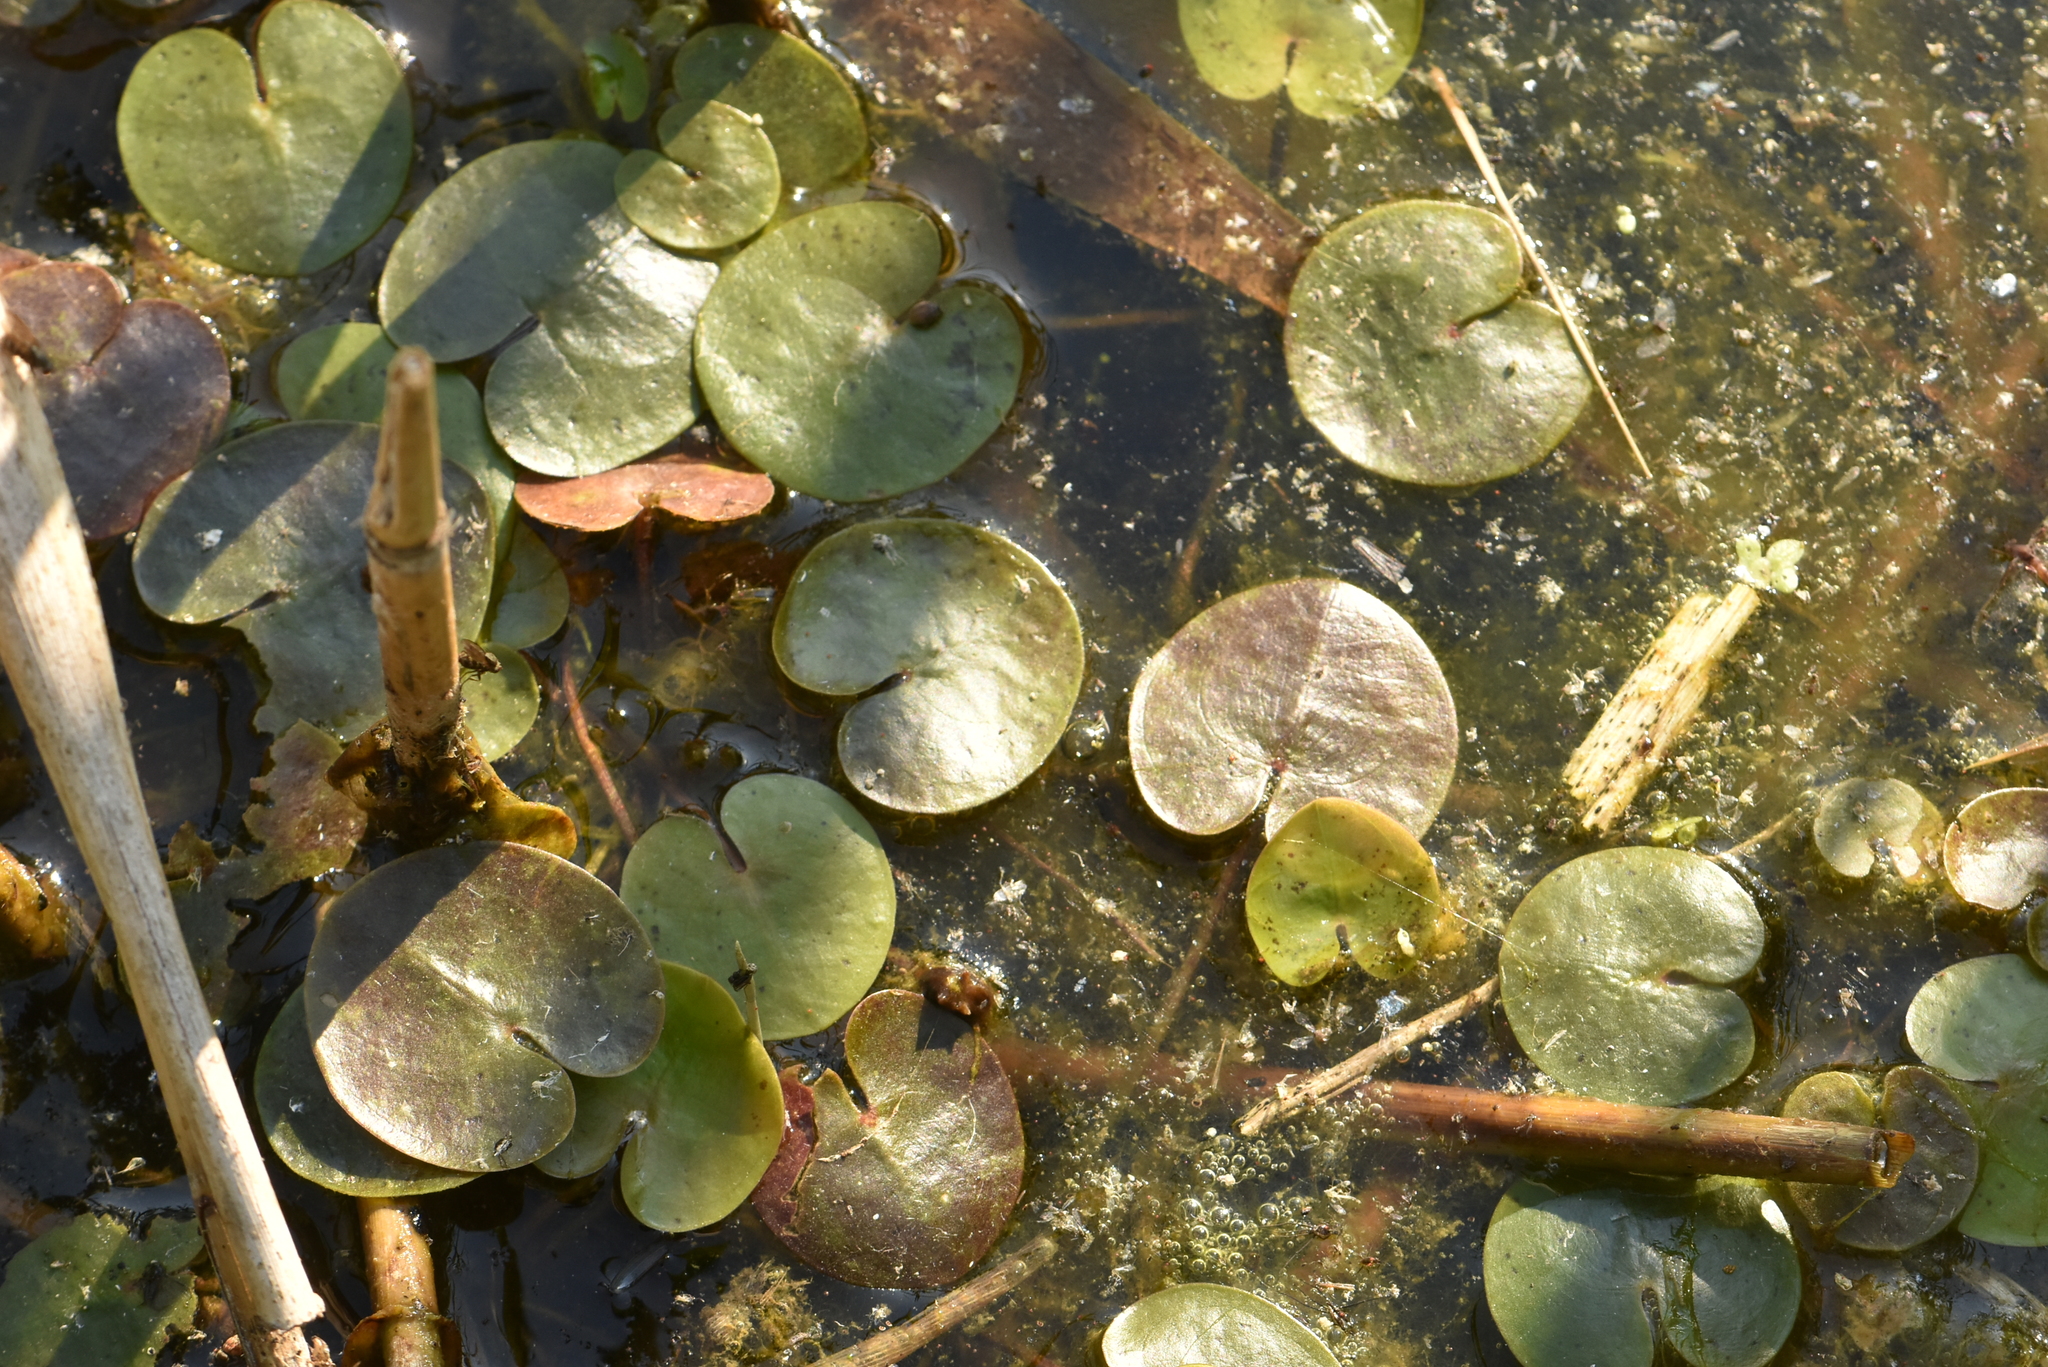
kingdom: Plantae
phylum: Tracheophyta
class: Liliopsida
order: Alismatales
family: Hydrocharitaceae
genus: Hydrocharis
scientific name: Hydrocharis morsus-ranae
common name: Frogbit
